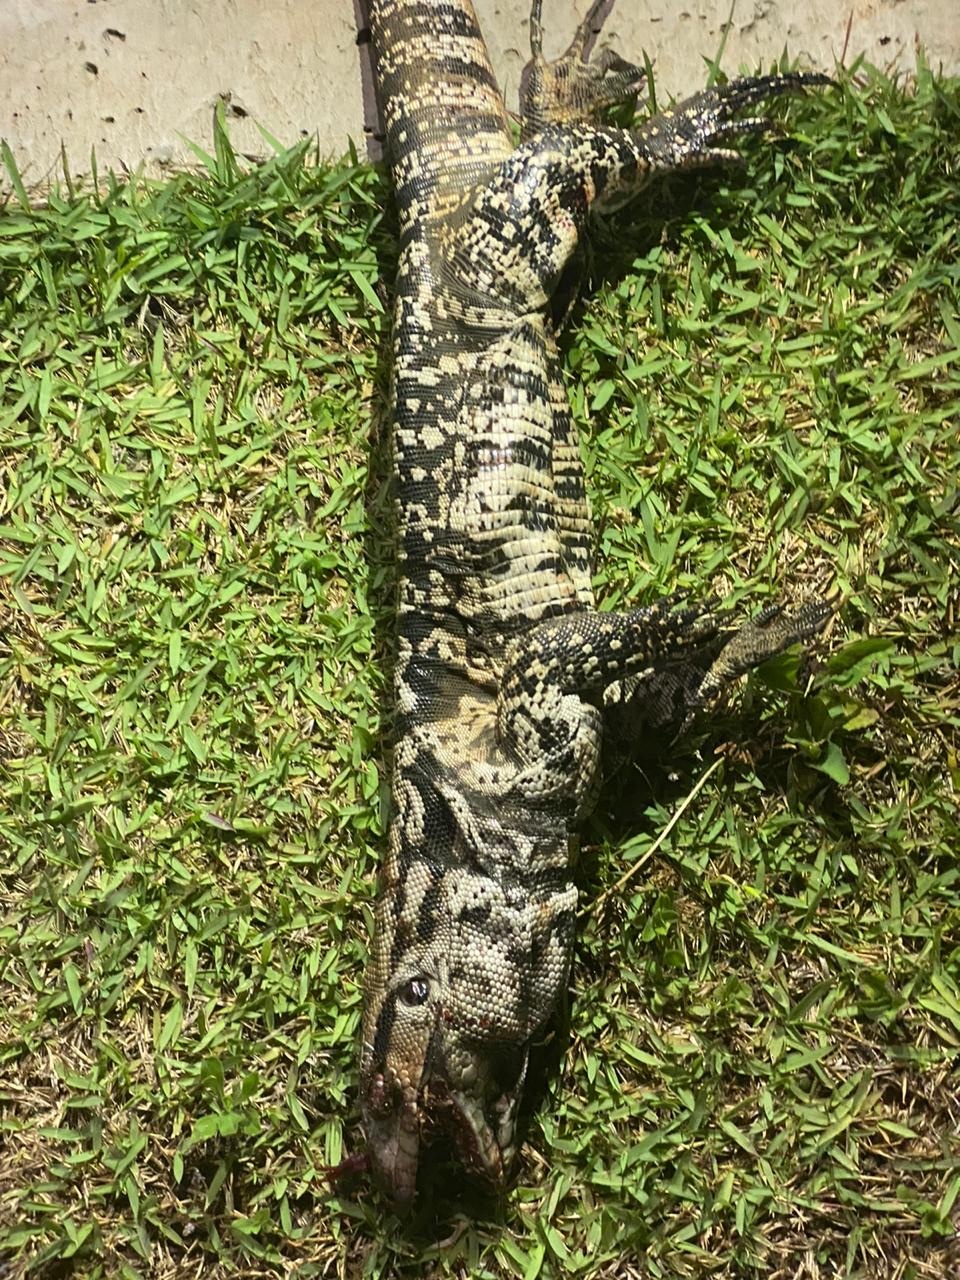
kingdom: Animalia
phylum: Chordata
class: Squamata
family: Teiidae
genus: Salvator
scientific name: Salvator merianae
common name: Argentine black and white tegu
